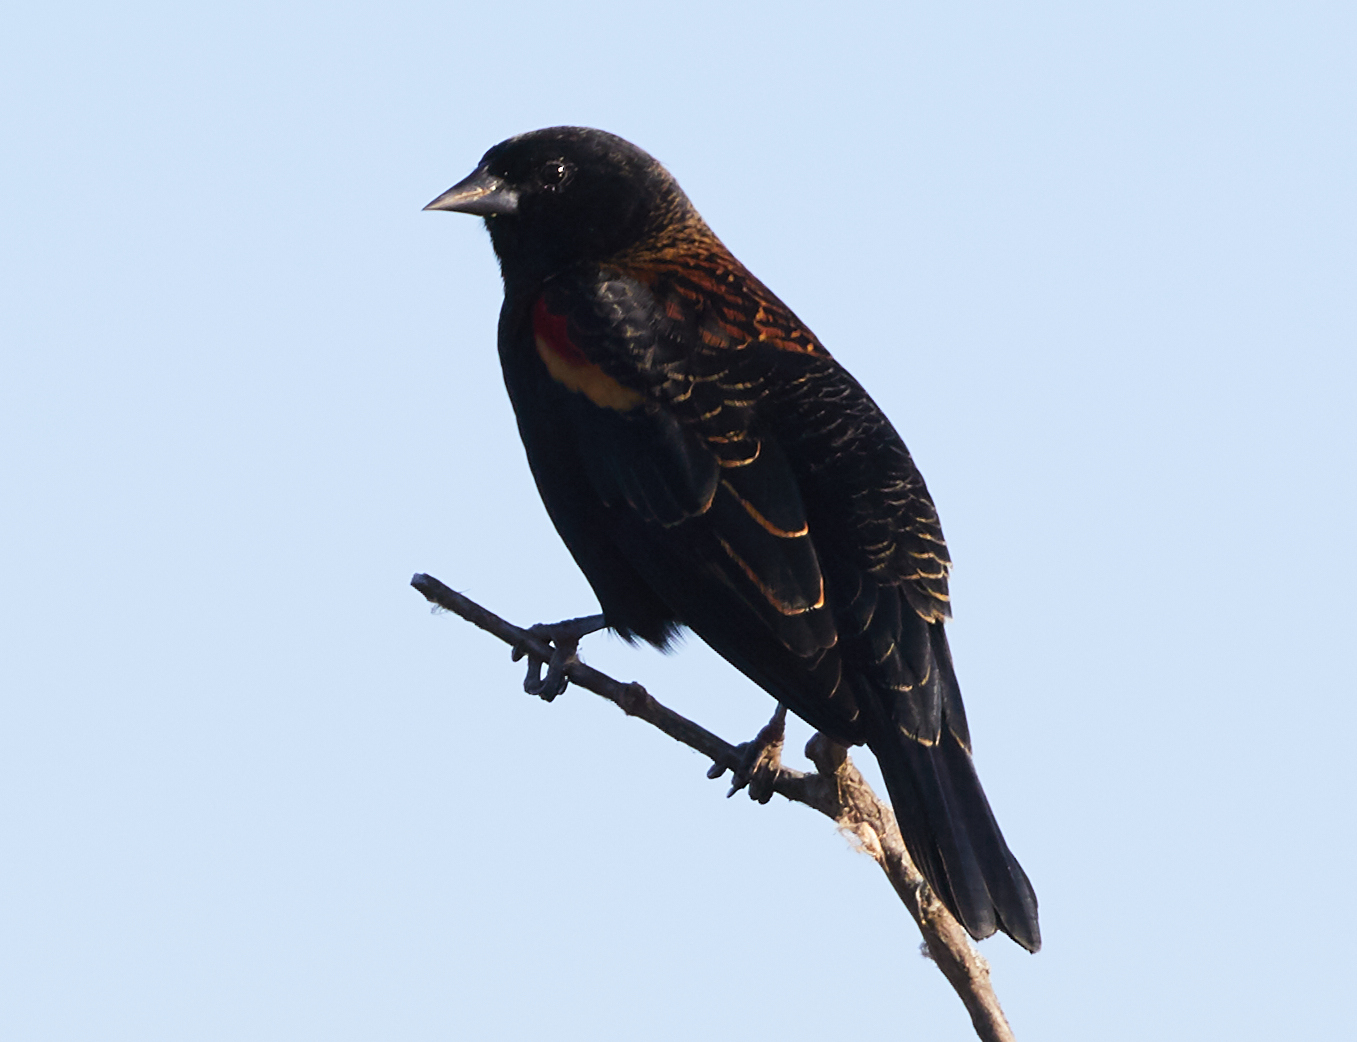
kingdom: Animalia
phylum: Chordata
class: Aves
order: Passeriformes
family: Icteridae
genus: Agelaius
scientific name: Agelaius phoeniceus
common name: Red-winged blackbird
